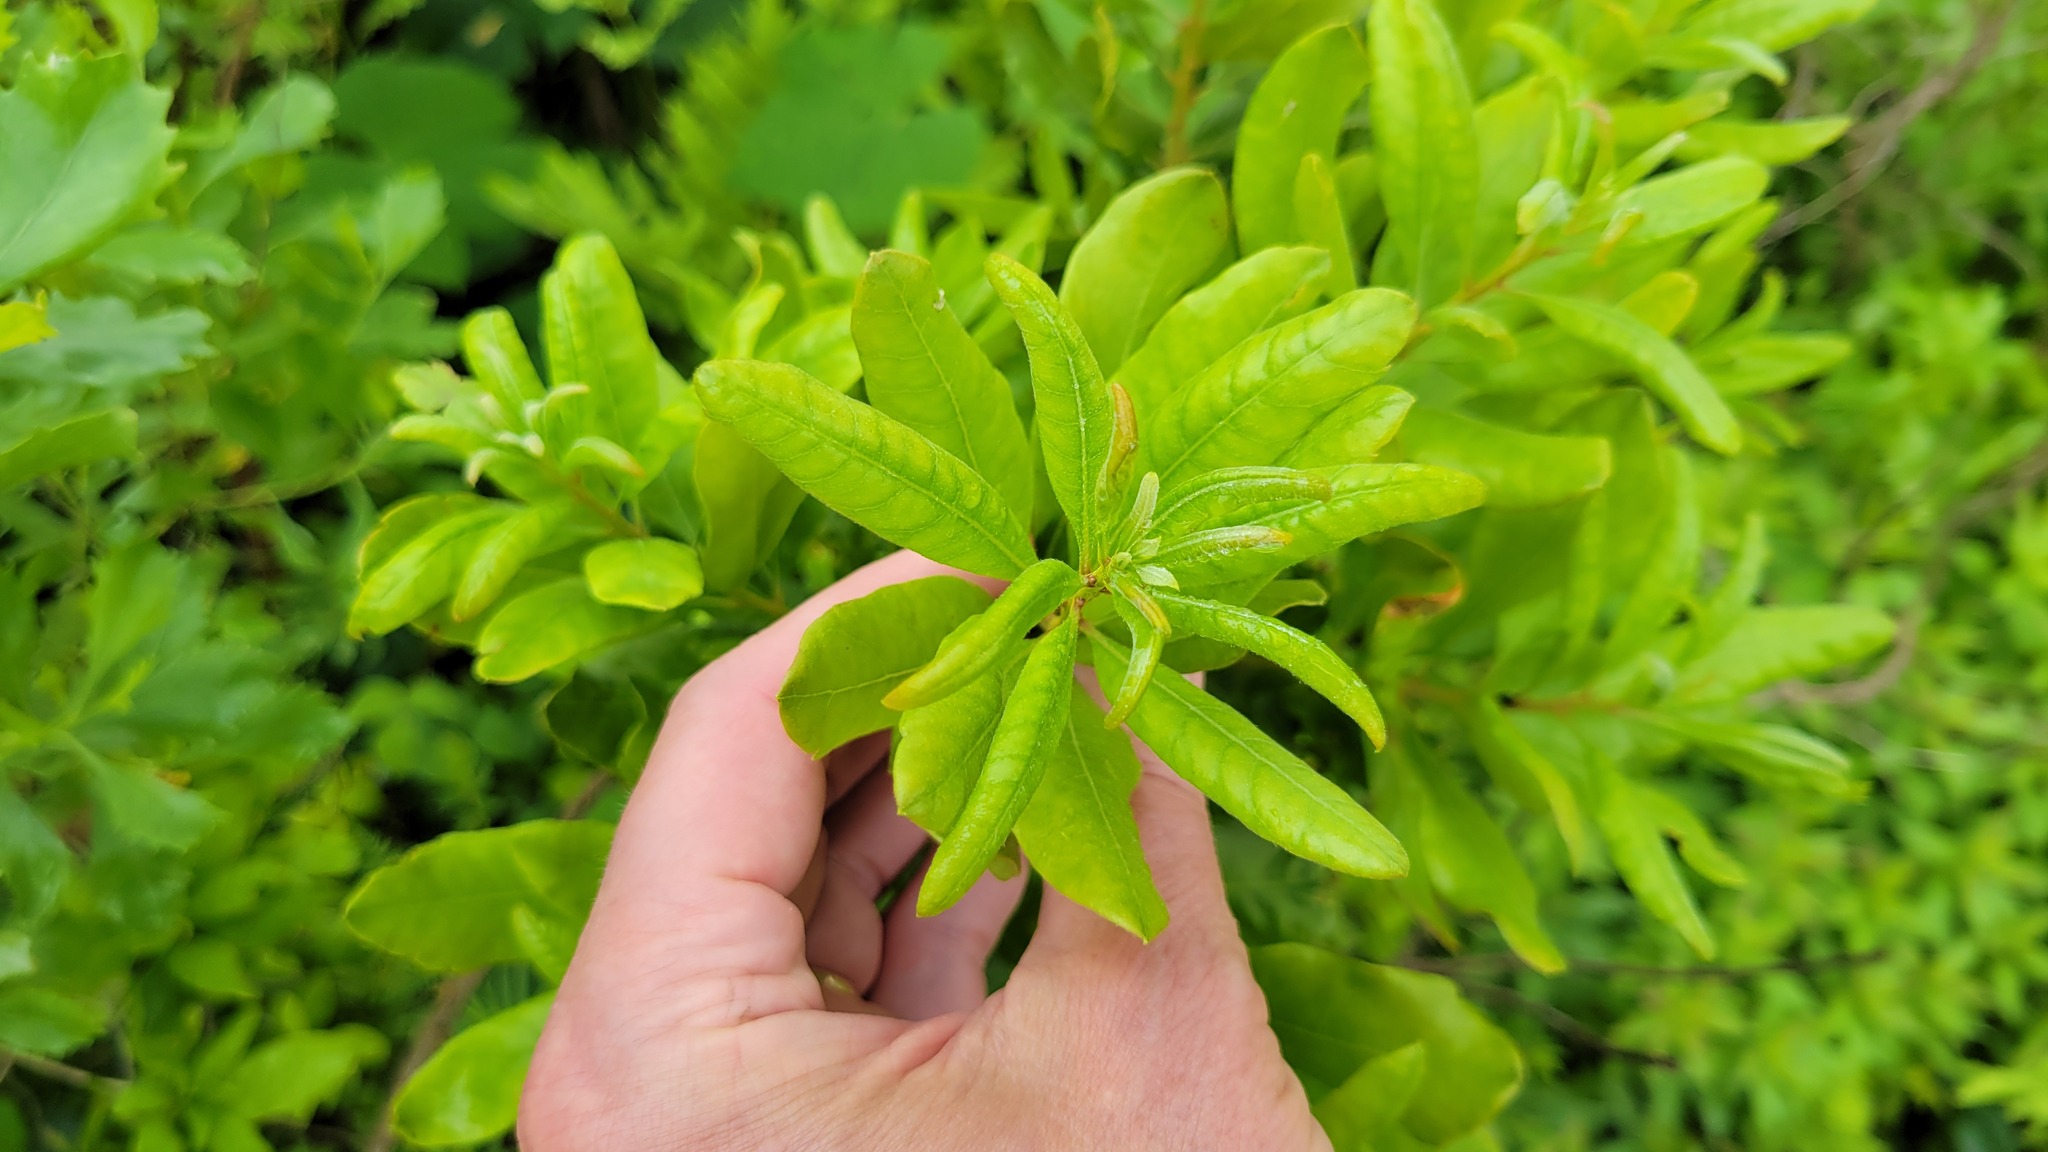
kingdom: Plantae
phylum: Tracheophyta
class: Magnoliopsida
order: Fagales
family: Myricaceae
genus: Morella
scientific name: Morella pensylvanica
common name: Northern bayberry
